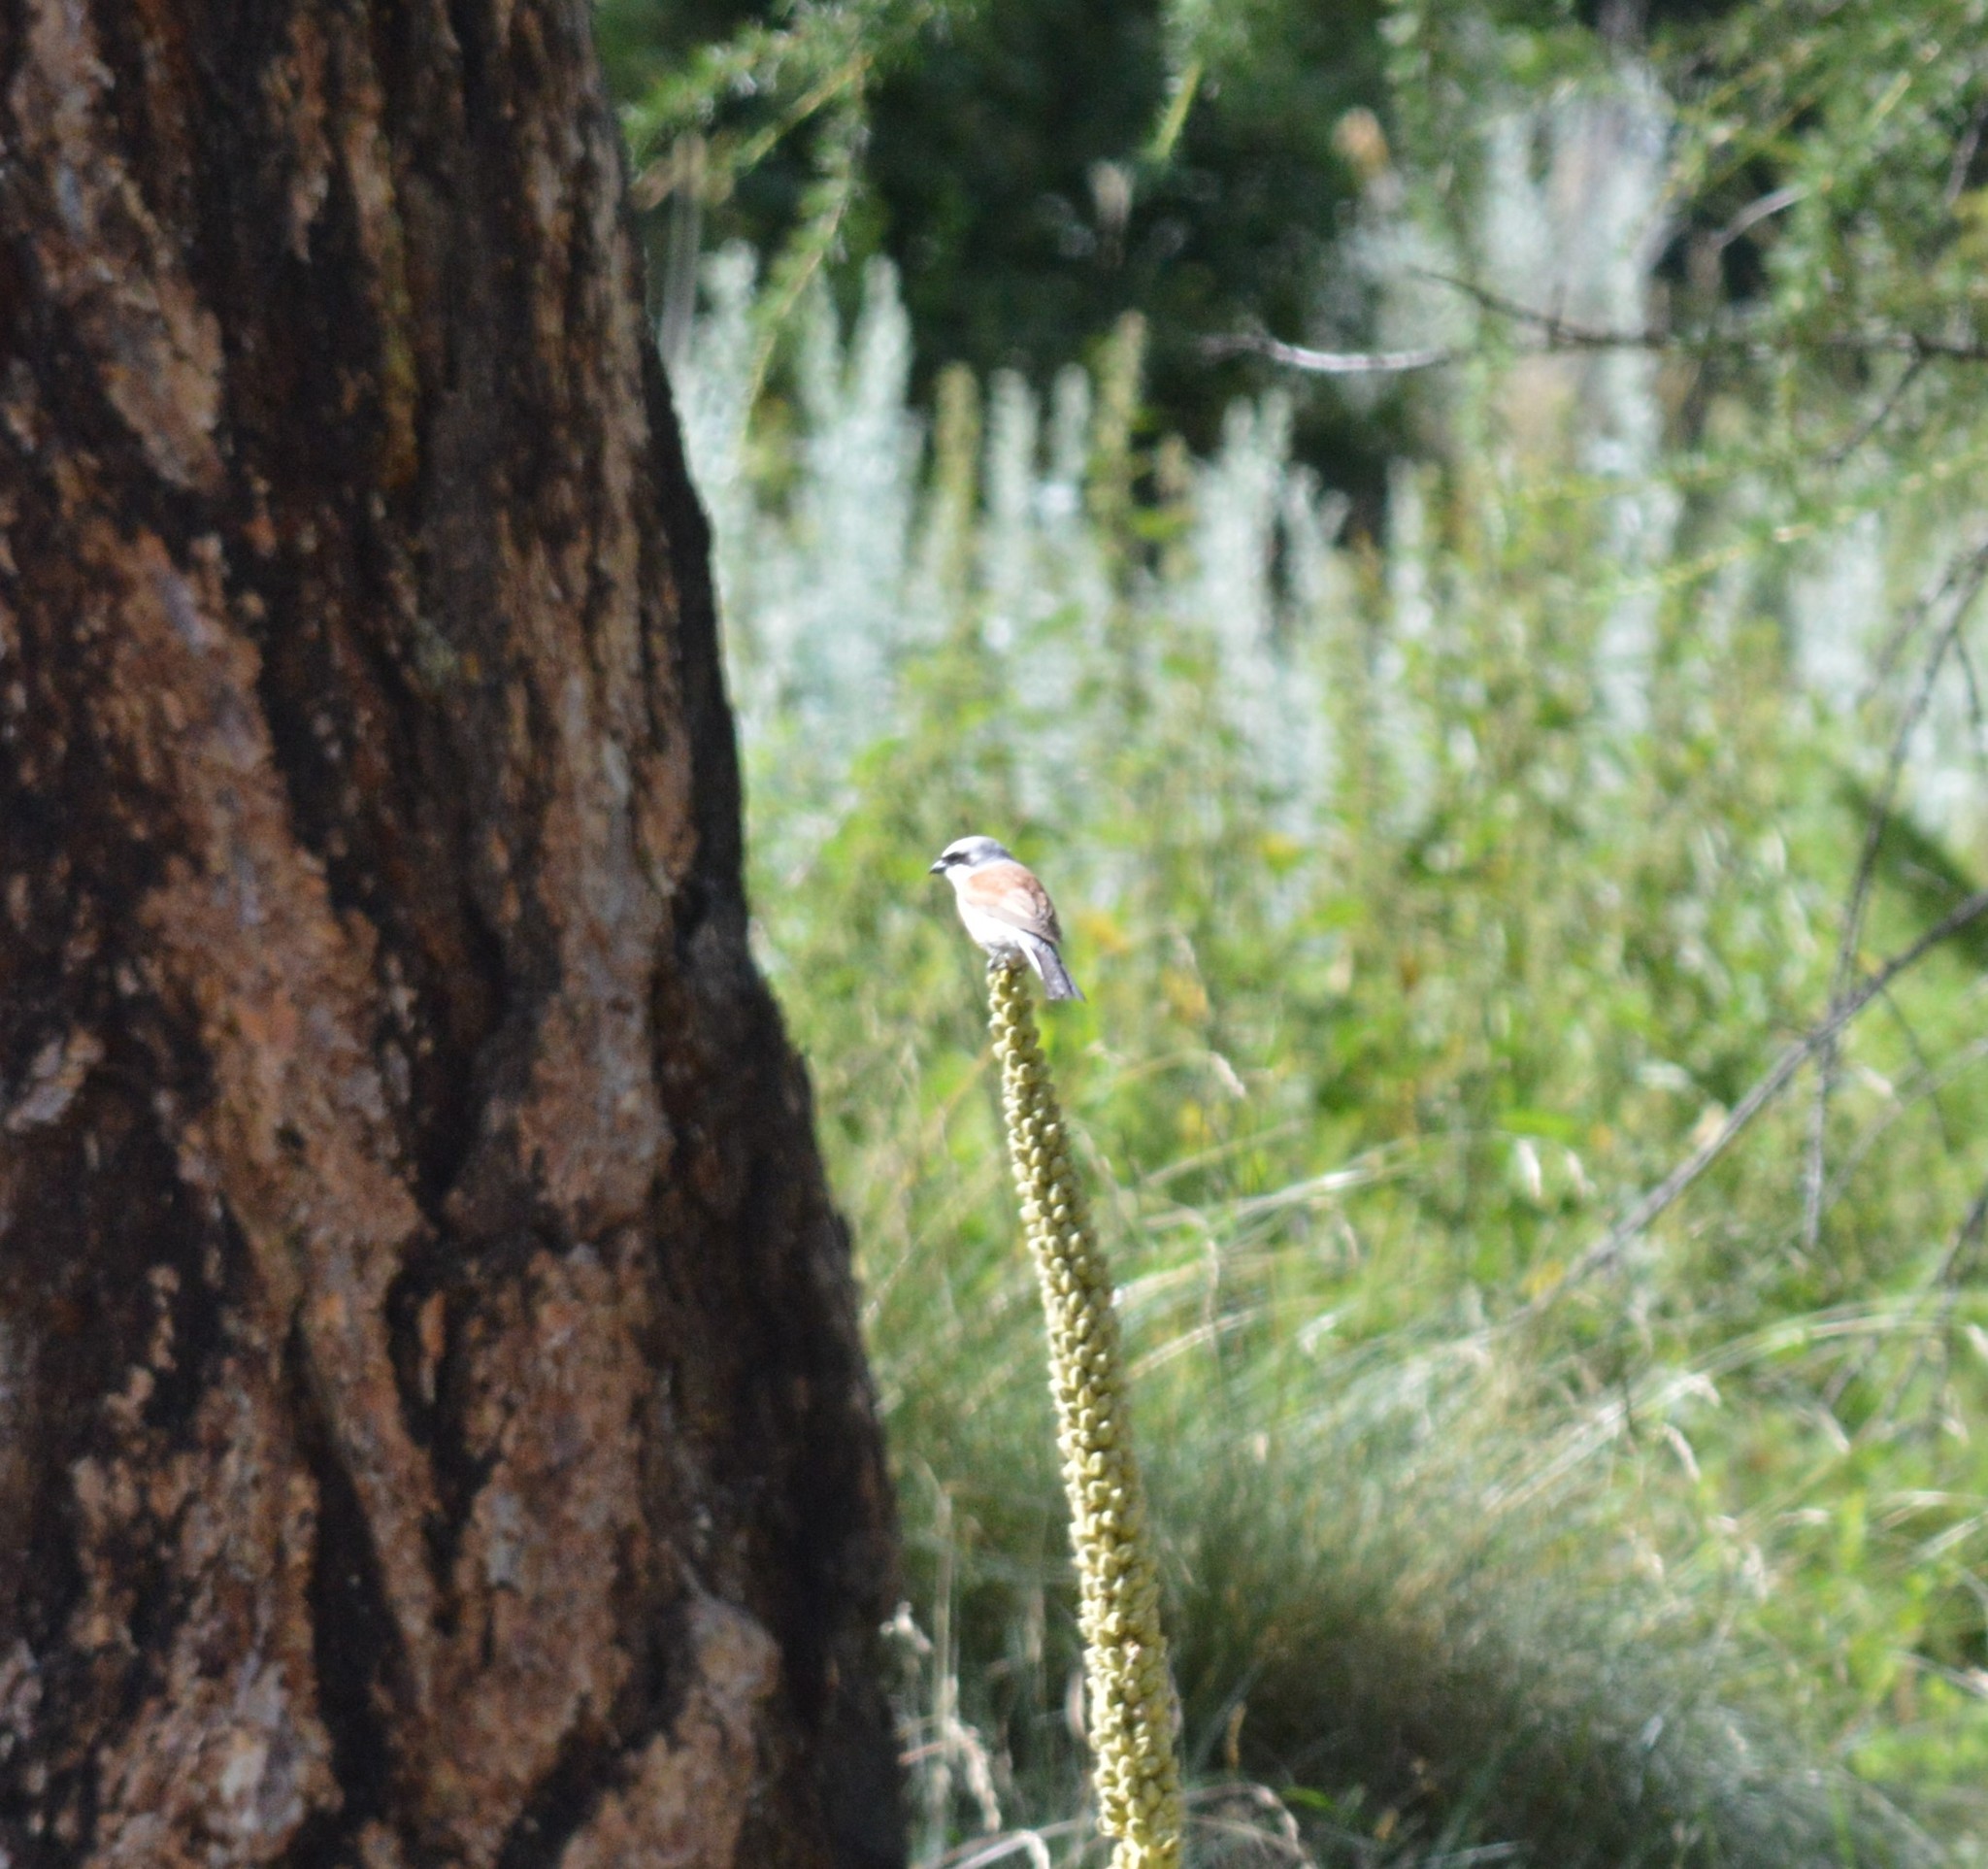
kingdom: Animalia
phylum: Chordata
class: Aves
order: Passeriformes
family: Laniidae
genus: Lanius
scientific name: Lanius collurio
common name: Red-backed shrike
